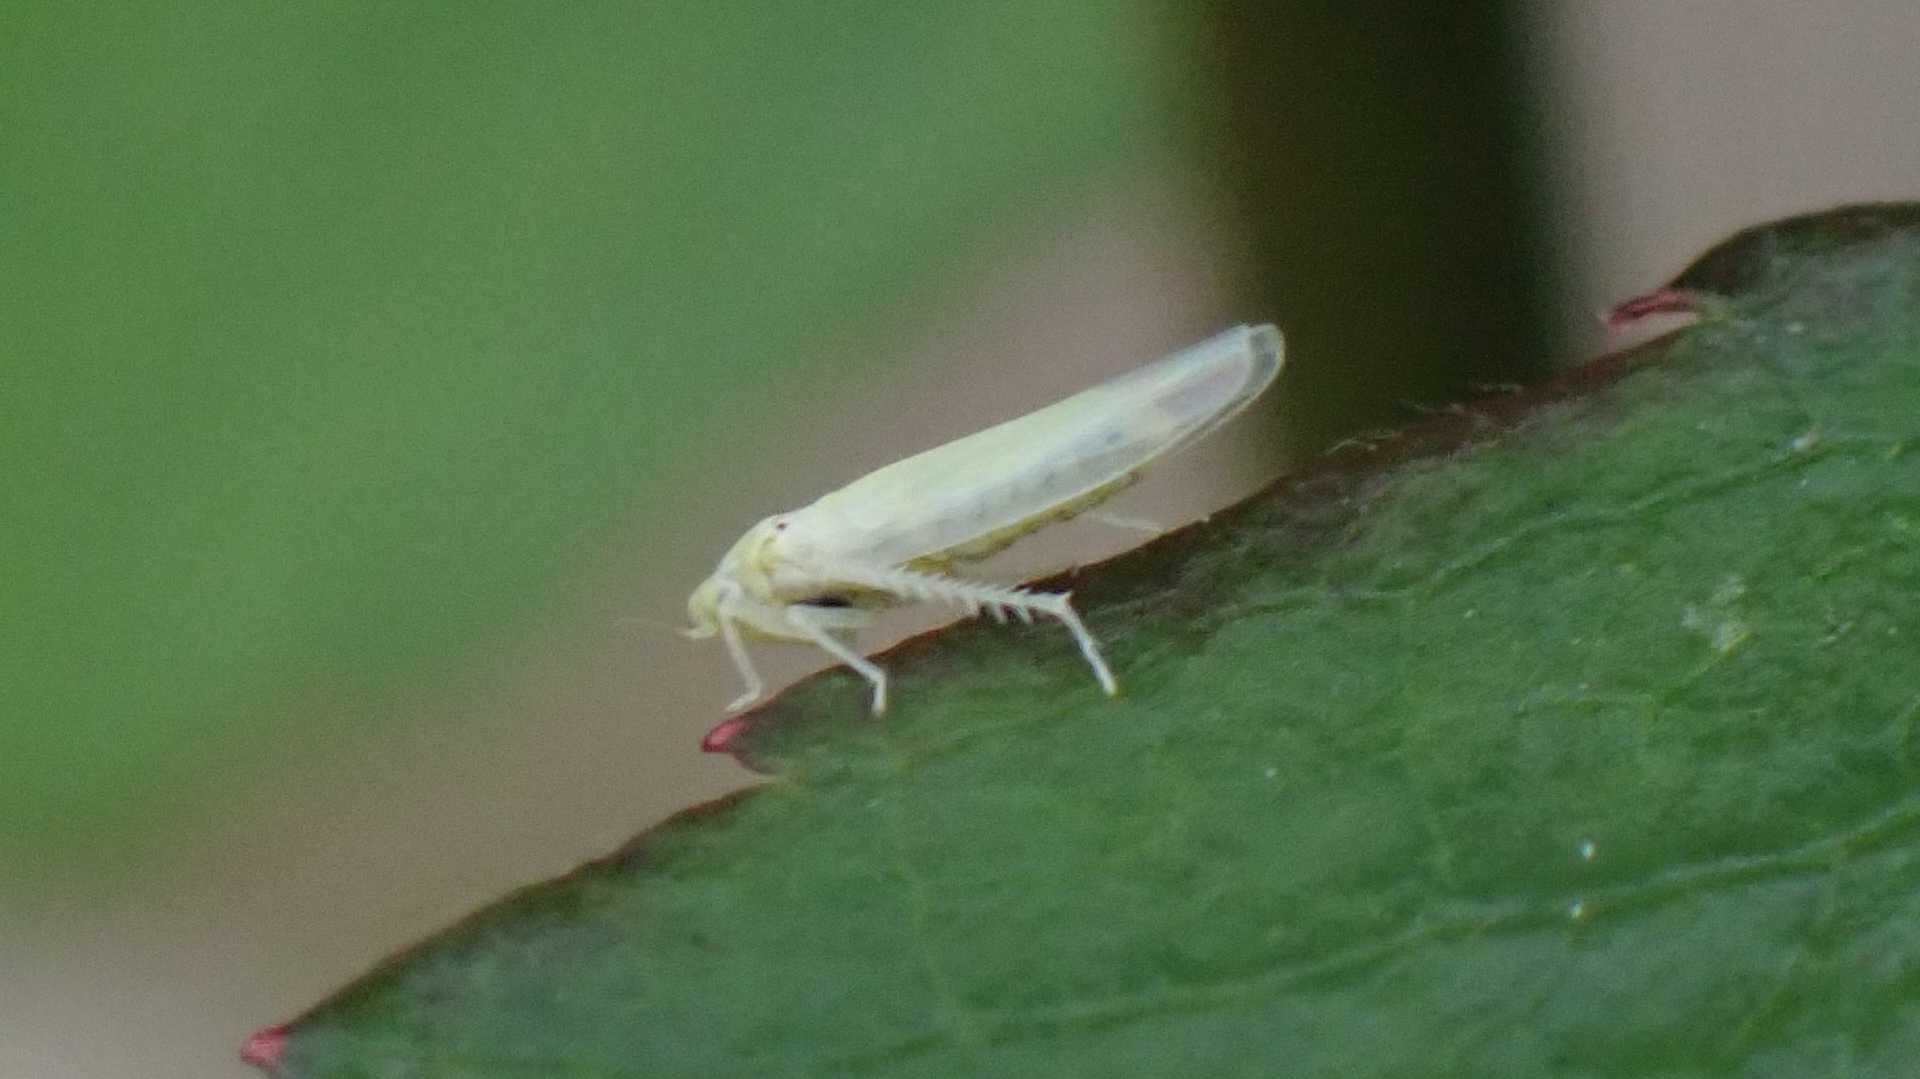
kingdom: Animalia
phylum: Arthropoda
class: Insecta
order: Hemiptera
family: Cicadellidae
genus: Zygina
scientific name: Zygina nivea
